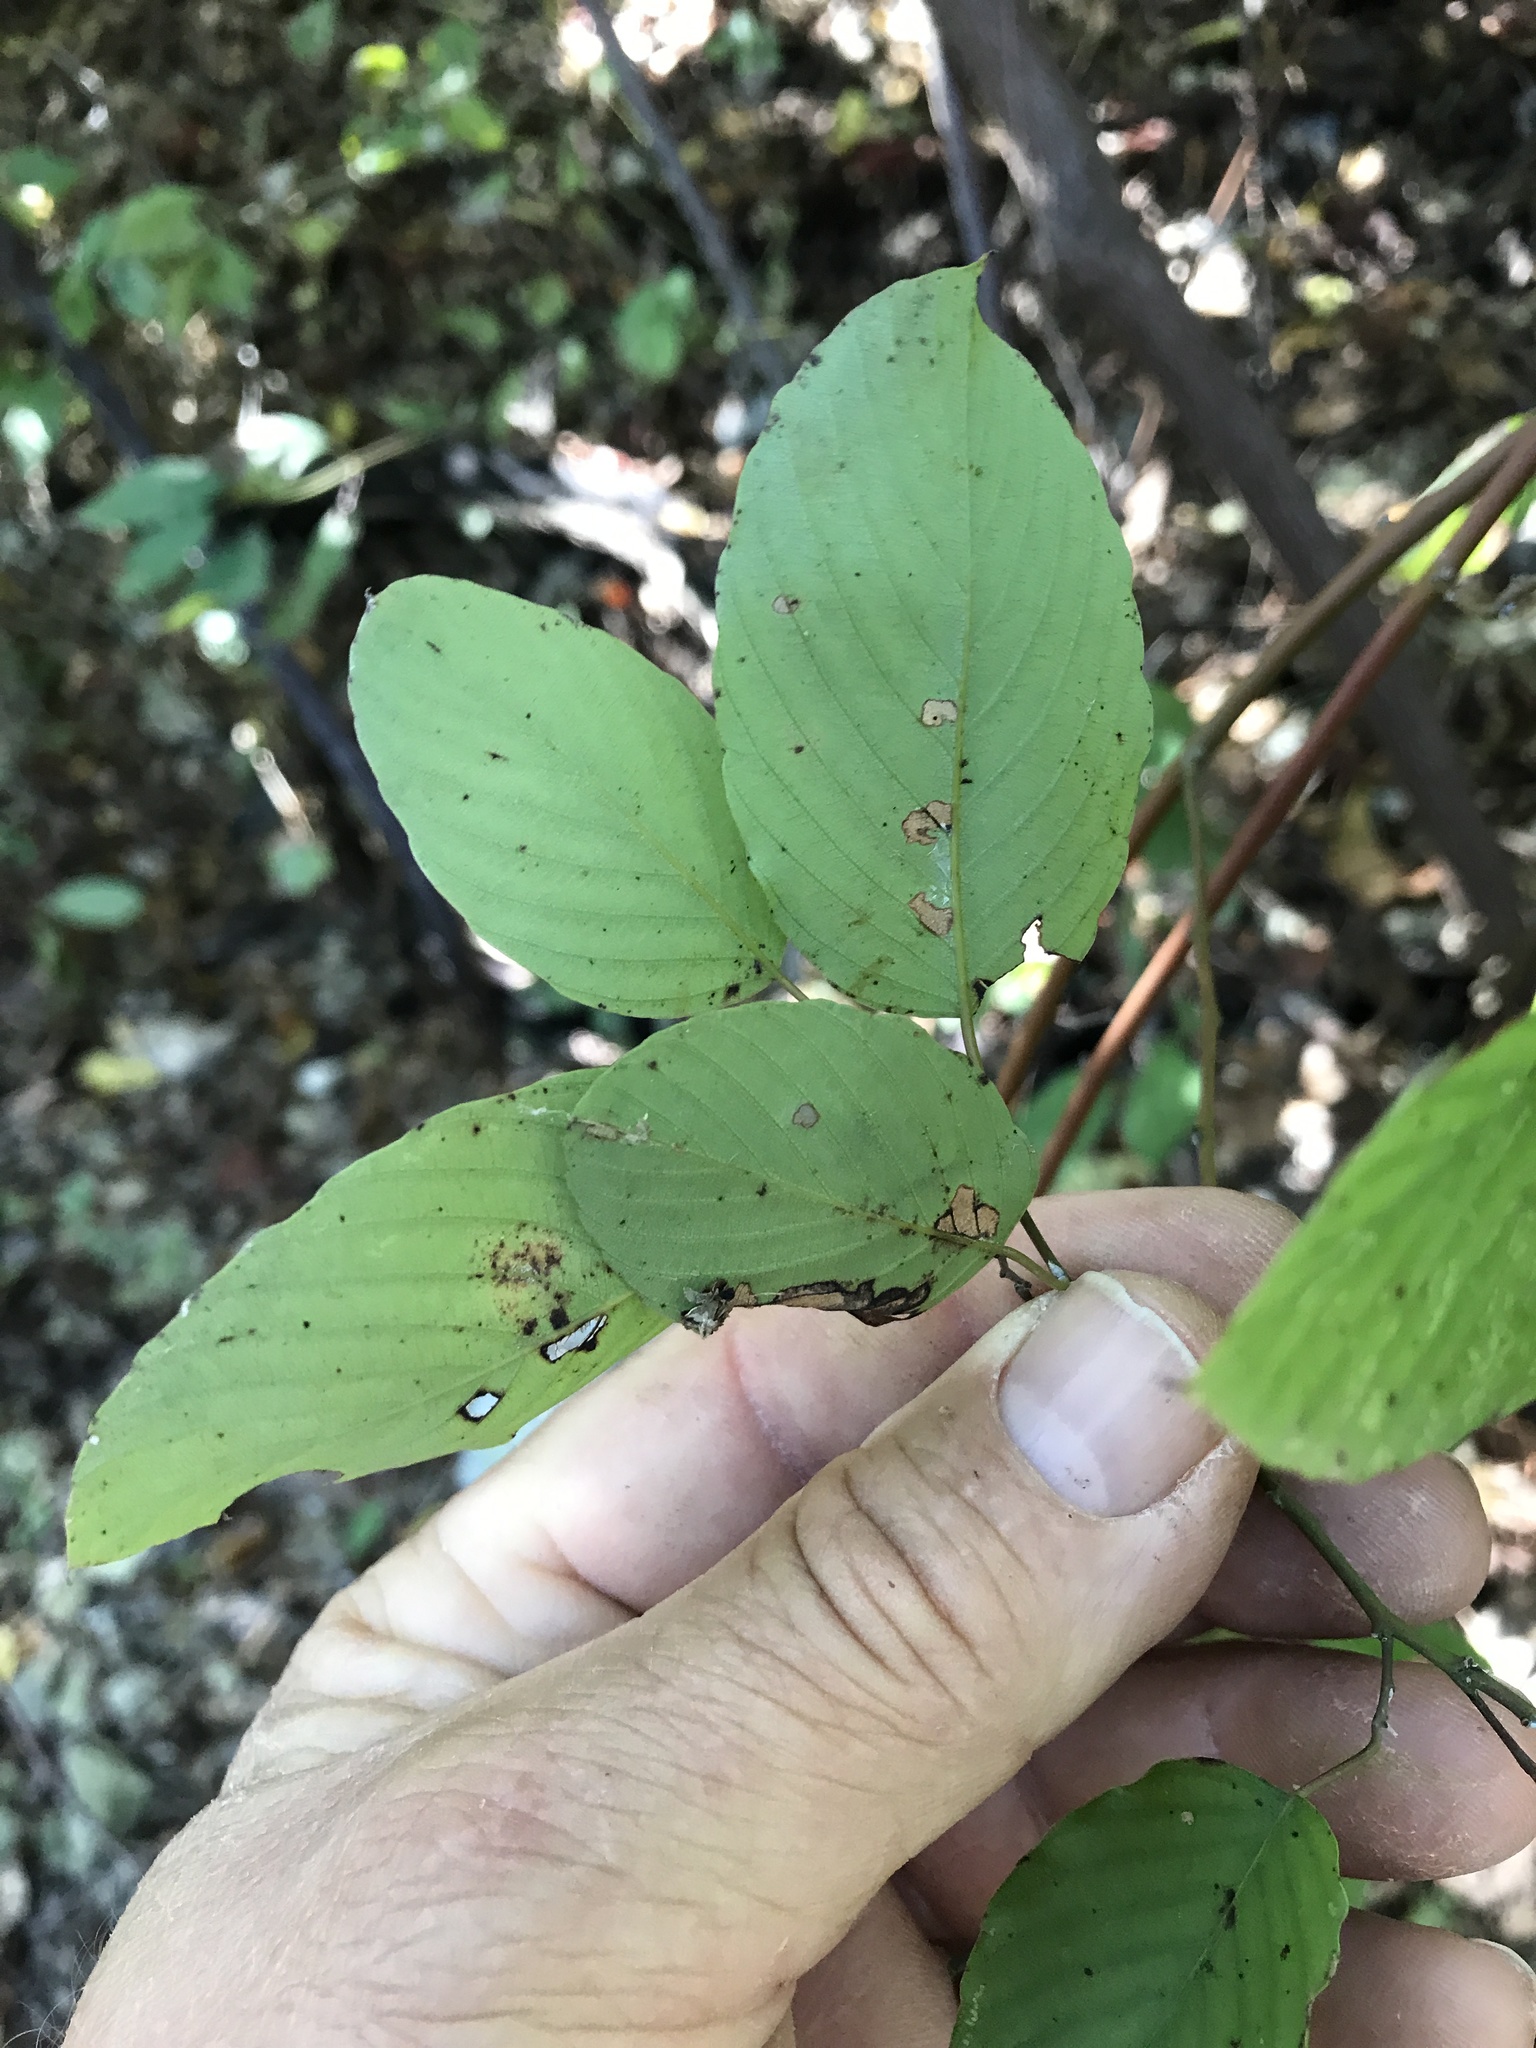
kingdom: Plantae
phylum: Tracheophyta
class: Magnoliopsida
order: Rosales
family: Rhamnaceae
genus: Berchemia
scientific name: Berchemia scandens
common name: Supplejack
